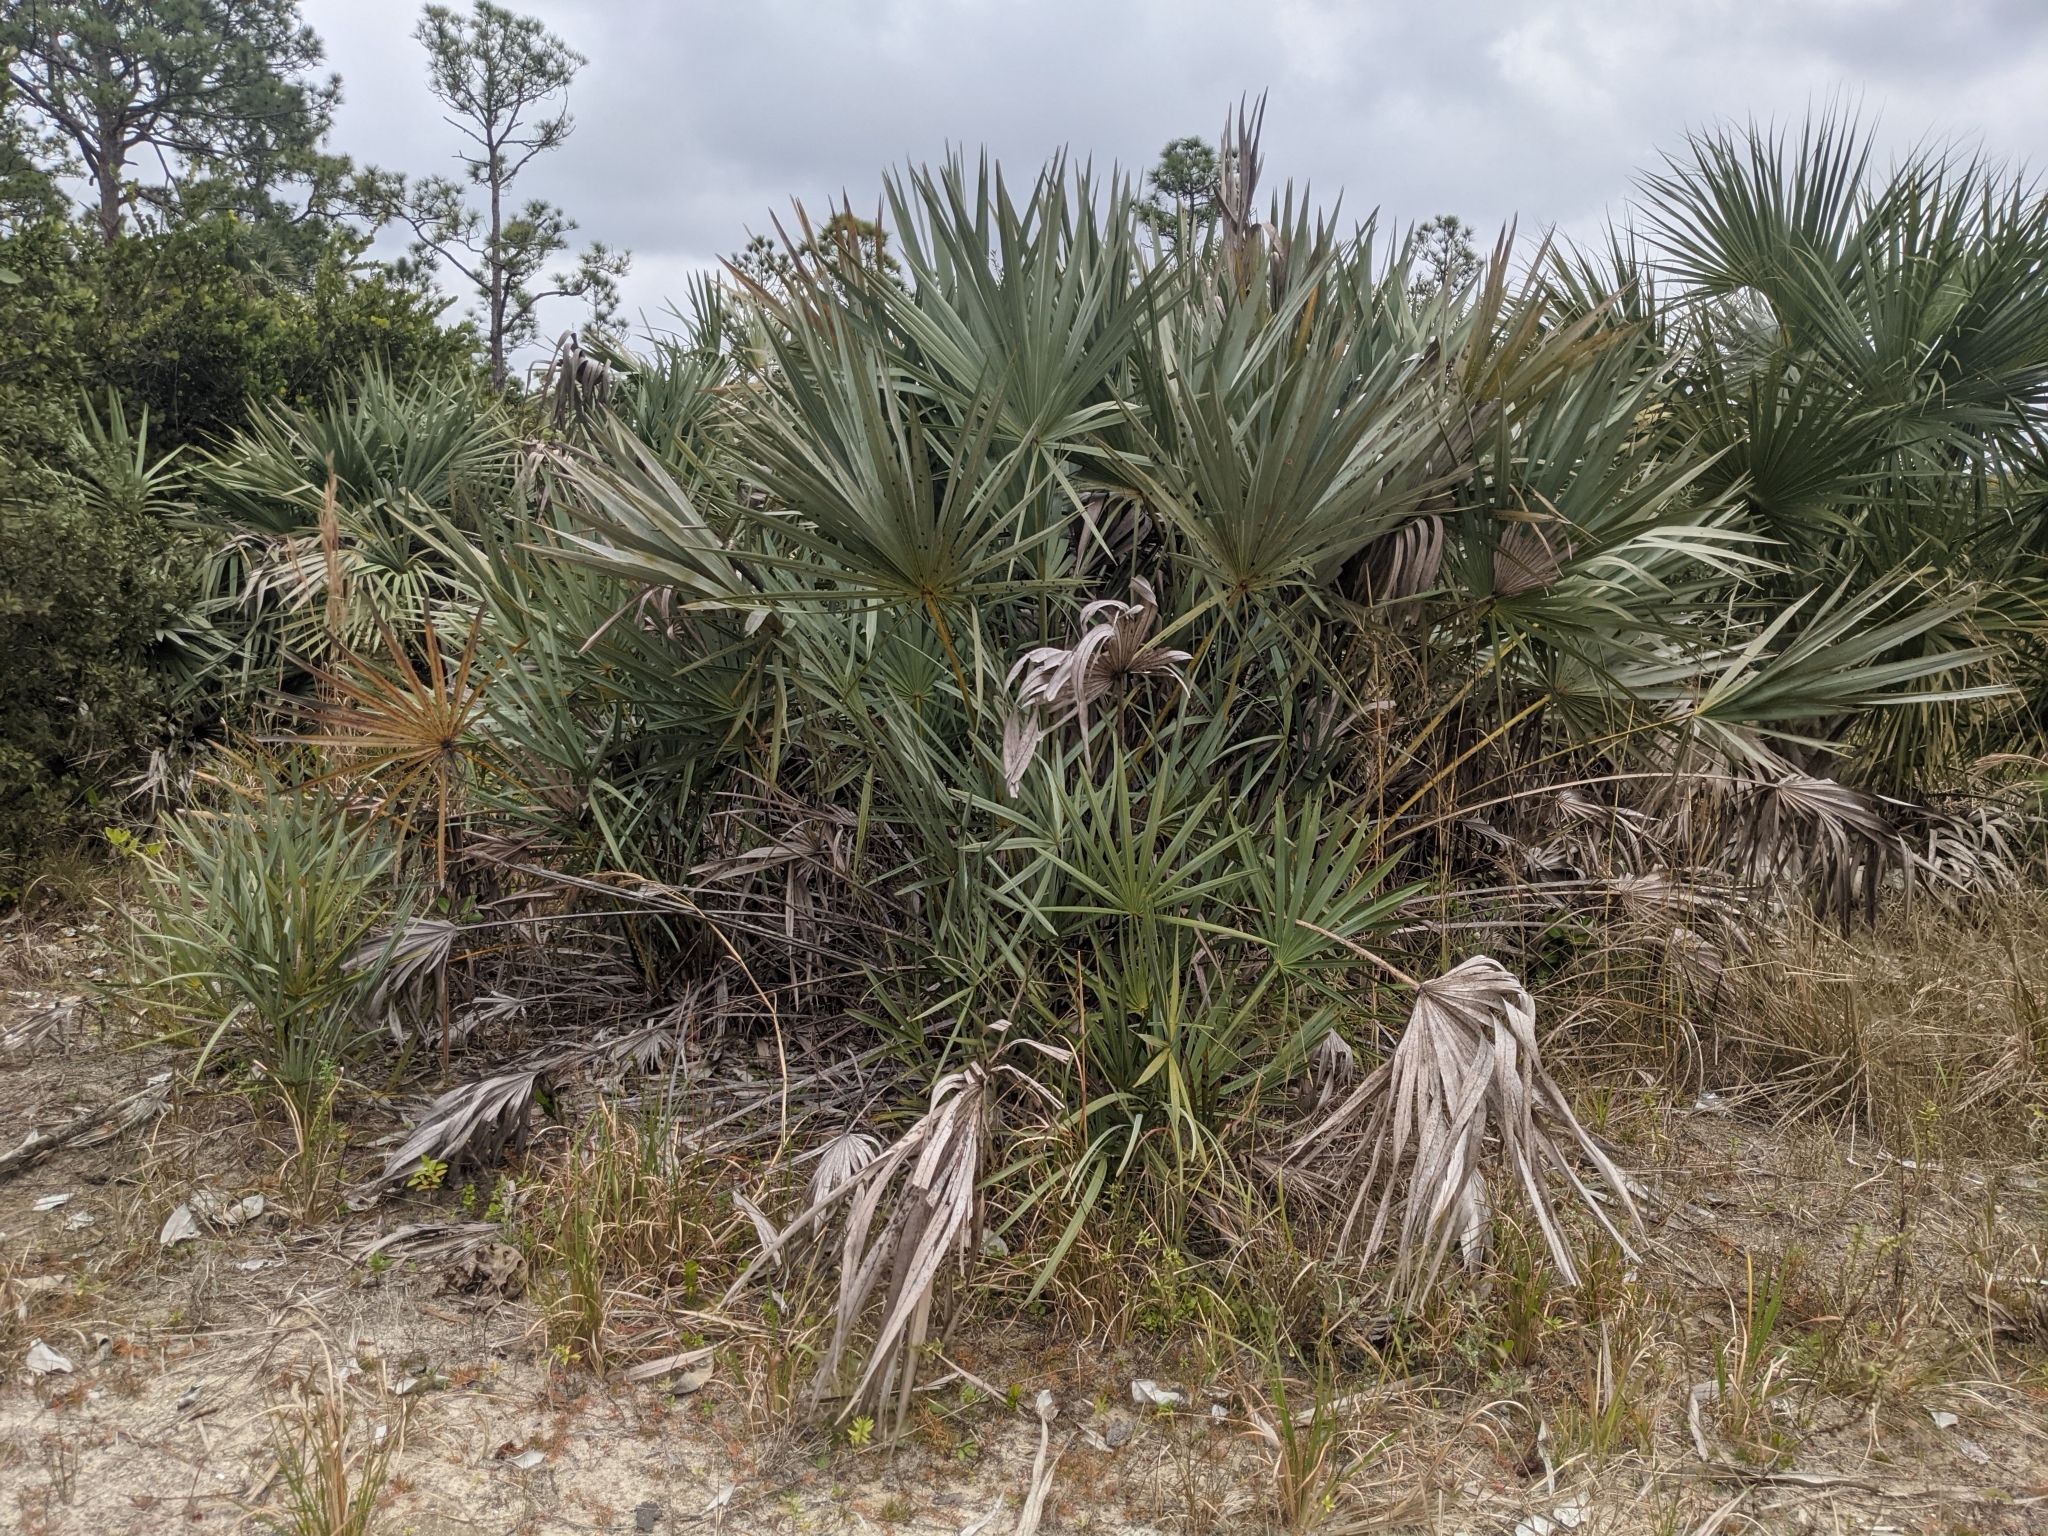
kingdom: Plantae
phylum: Tracheophyta
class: Liliopsida
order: Arecales
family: Arecaceae
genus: Serenoa
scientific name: Serenoa repens
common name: Saw-palmetto
